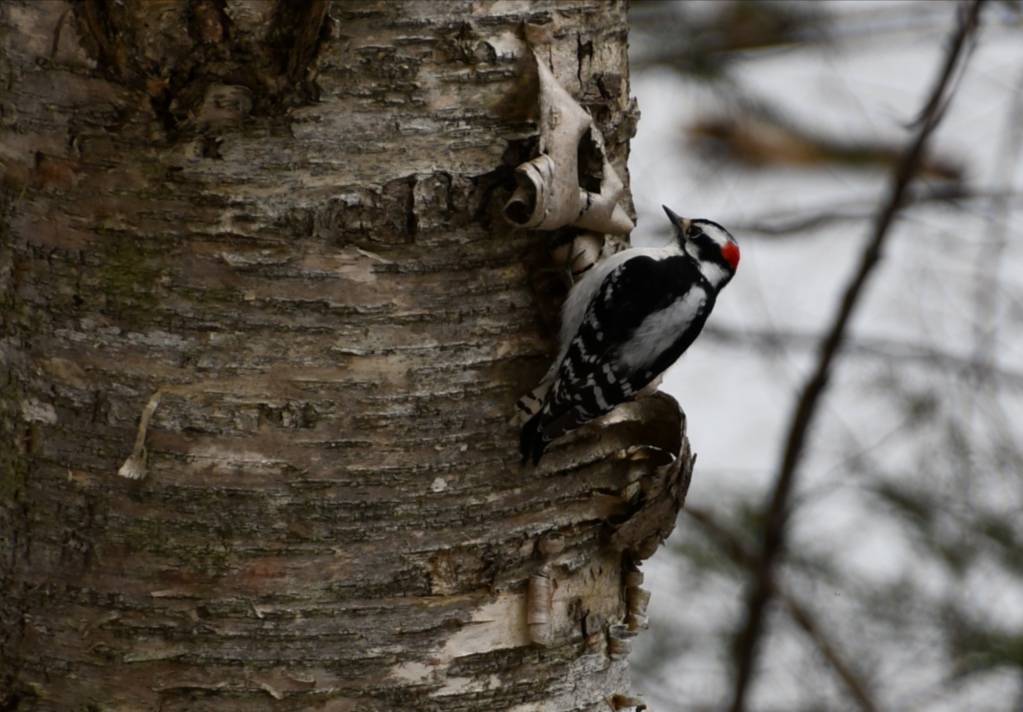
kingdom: Animalia
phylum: Chordata
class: Aves
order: Piciformes
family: Picidae
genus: Dryobates
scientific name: Dryobates pubescens
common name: Downy woodpecker
